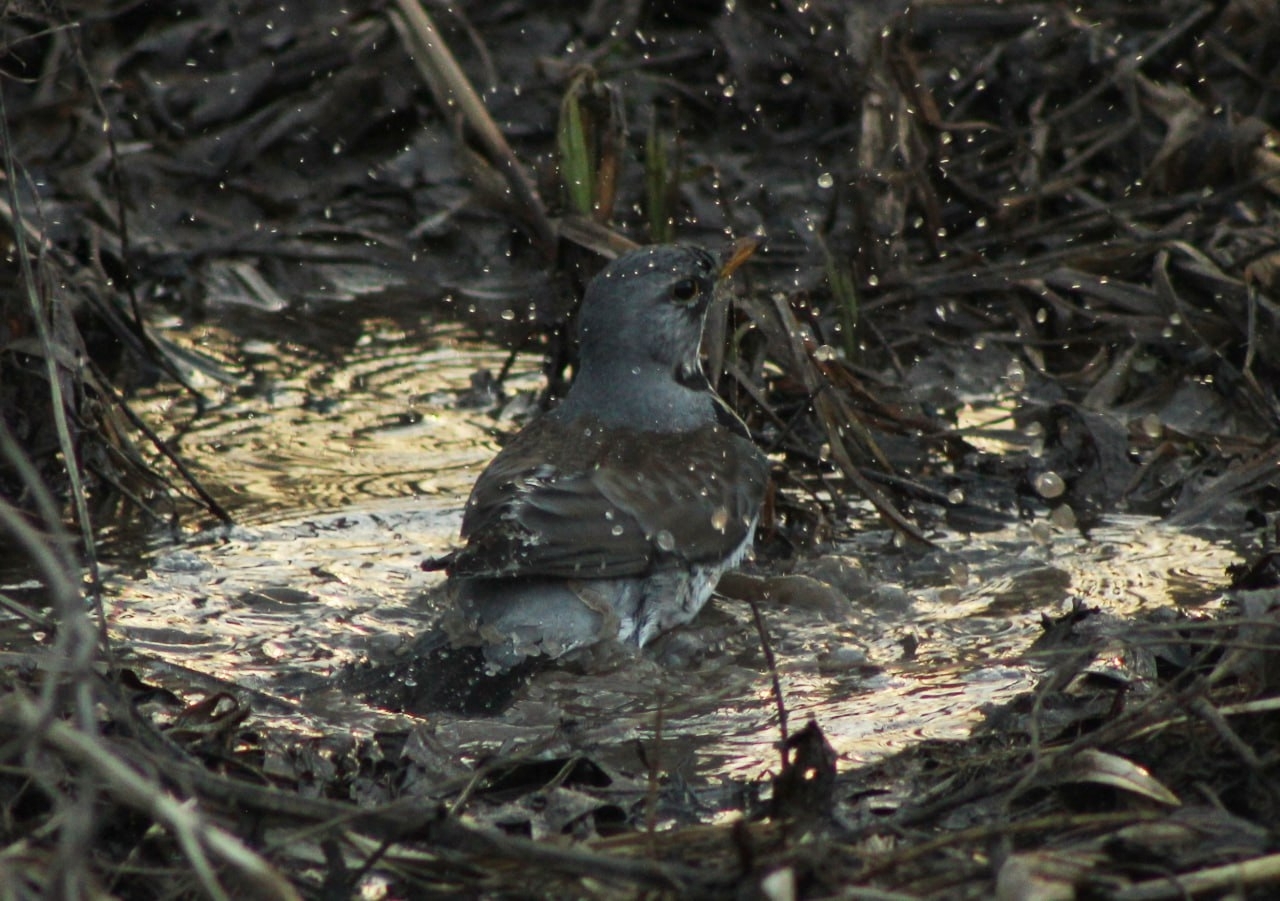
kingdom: Animalia
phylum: Chordata
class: Aves
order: Passeriformes
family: Turdidae
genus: Turdus
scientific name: Turdus pilaris
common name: Fieldfare
